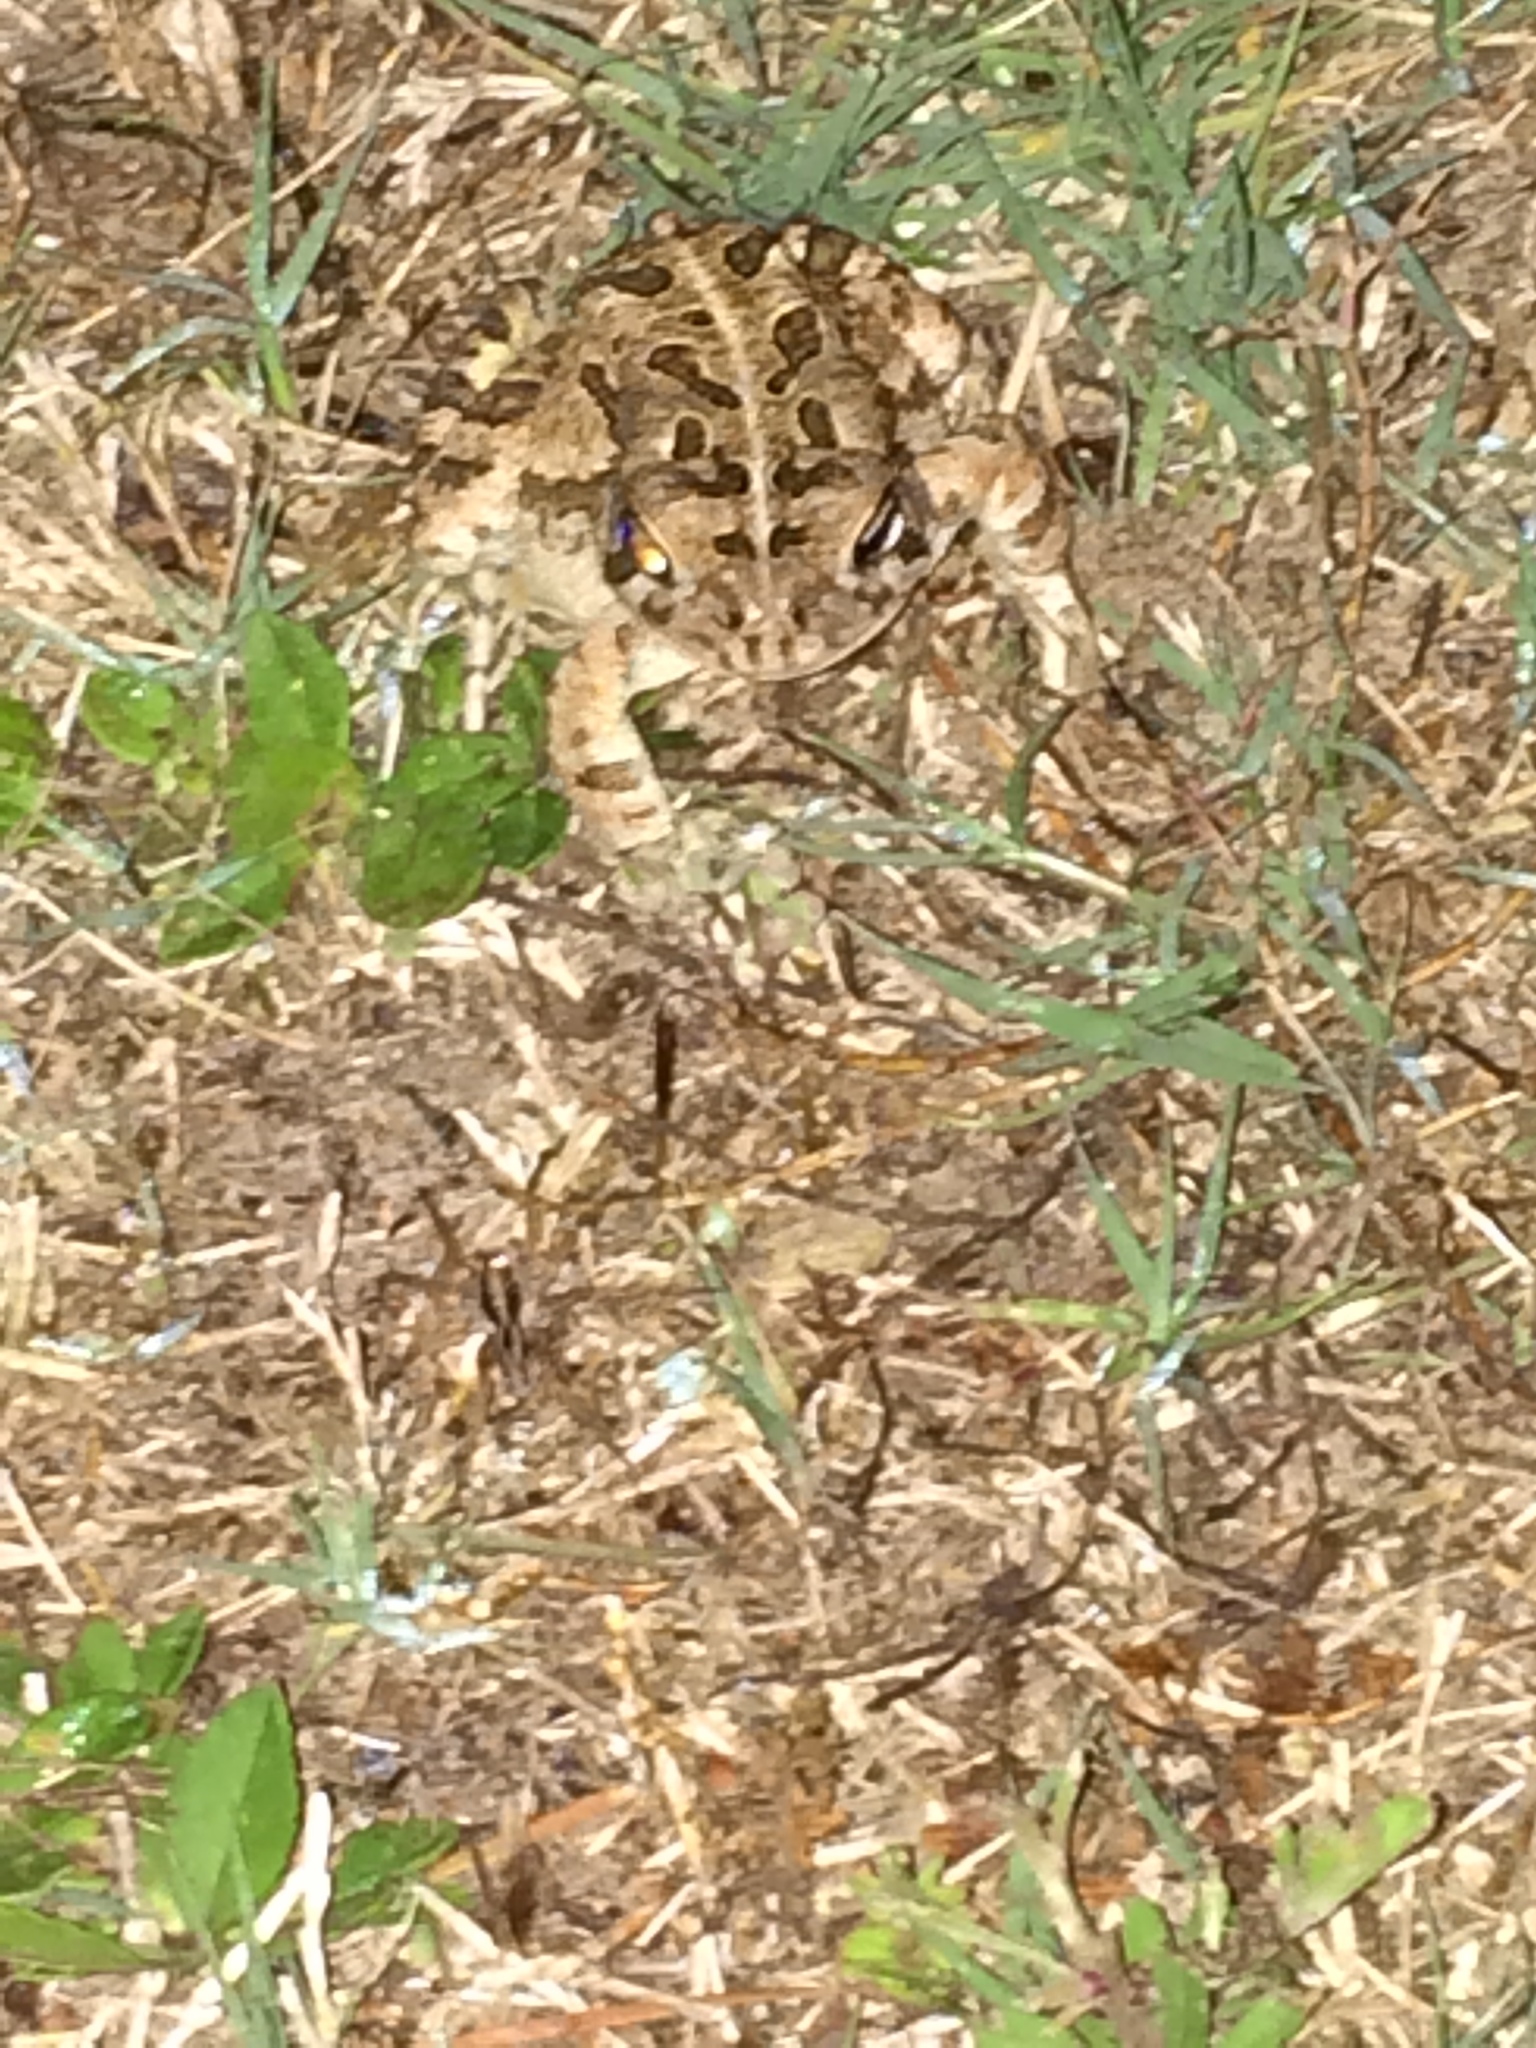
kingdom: Animalia
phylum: Chordata
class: Amphibia
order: Anura
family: Bufonidae
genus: Anaxyrus
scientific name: Anaxyrus fowleri
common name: Fowler's toad
